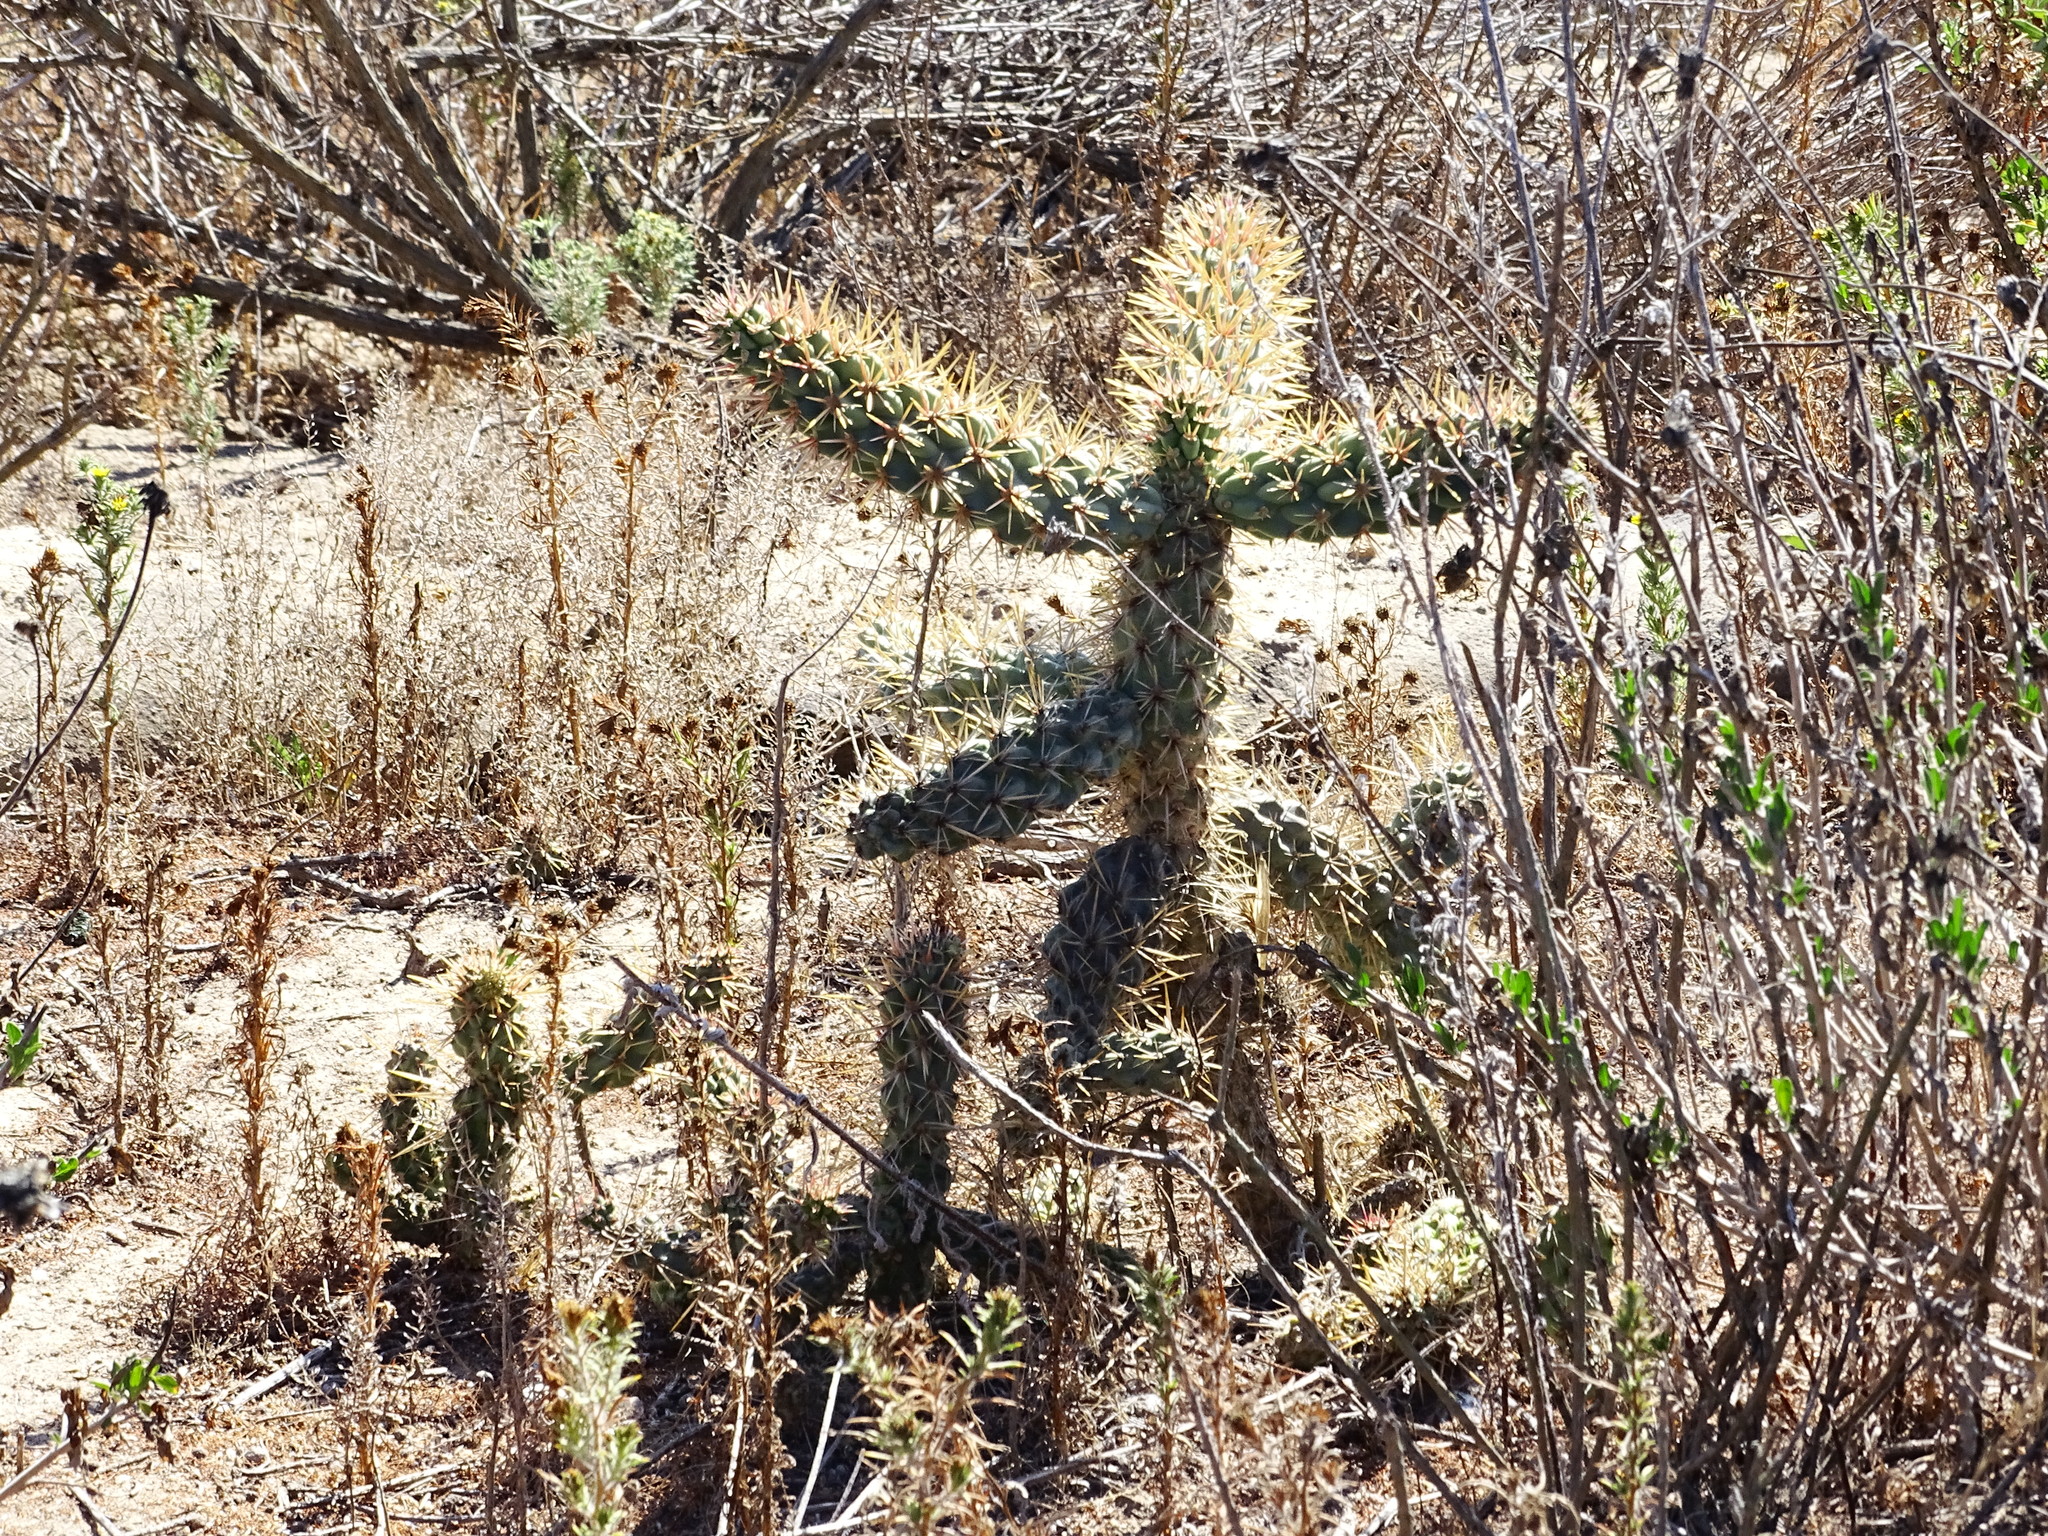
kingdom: Plantae
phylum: Tracheophyta
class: Magnoliopsida
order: Caryophyllales
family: Cactaceae
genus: Cylindropuntia
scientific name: Cylindropuntia prolifera
